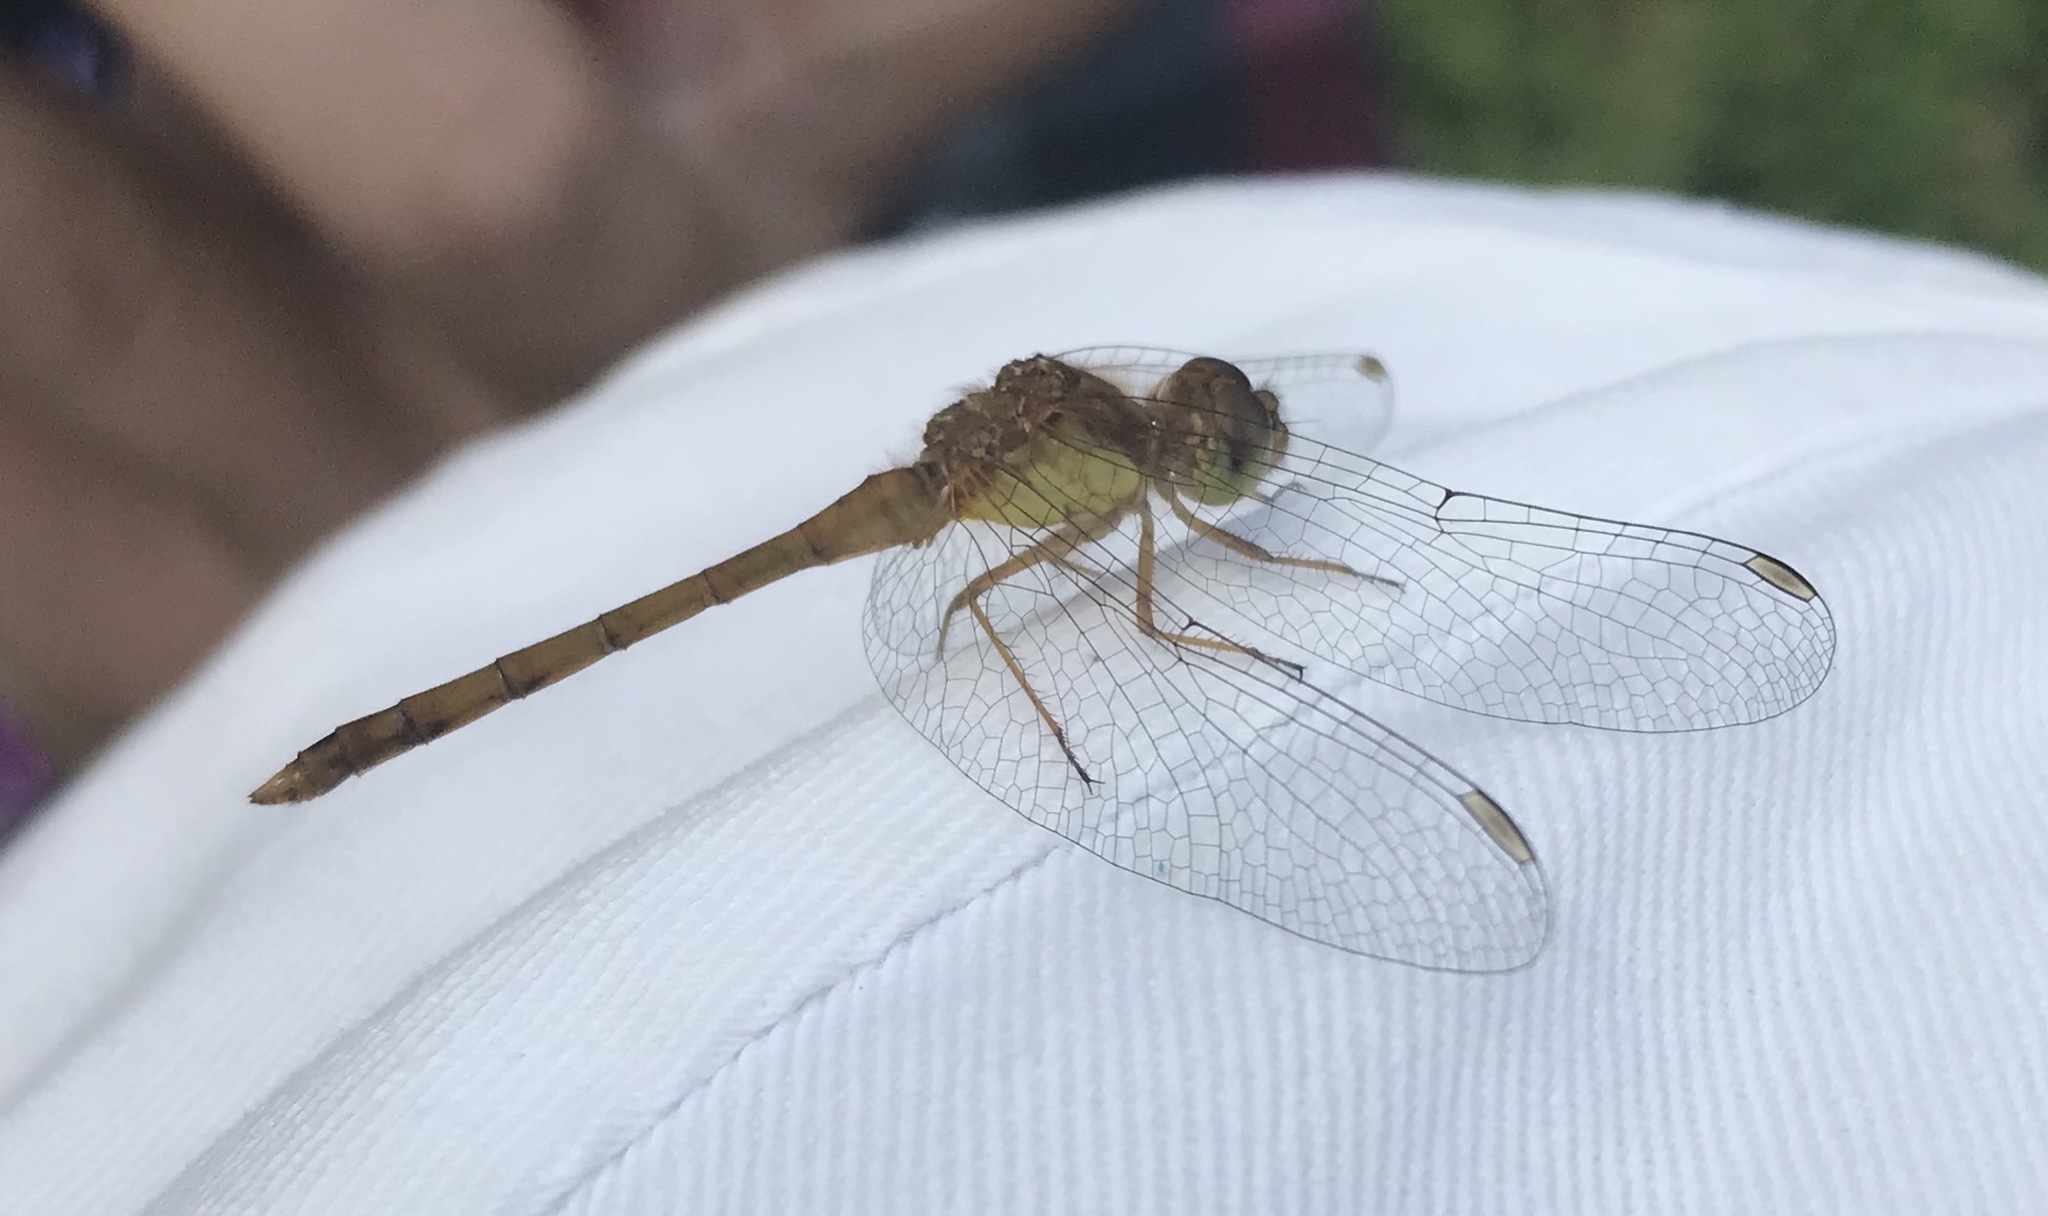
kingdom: Animalia
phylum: Arthropoda
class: Insecta
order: Odonata
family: Libellulidae
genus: Sympetrum
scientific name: Sympetrum vicinum
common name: Autumn meadowhawk
